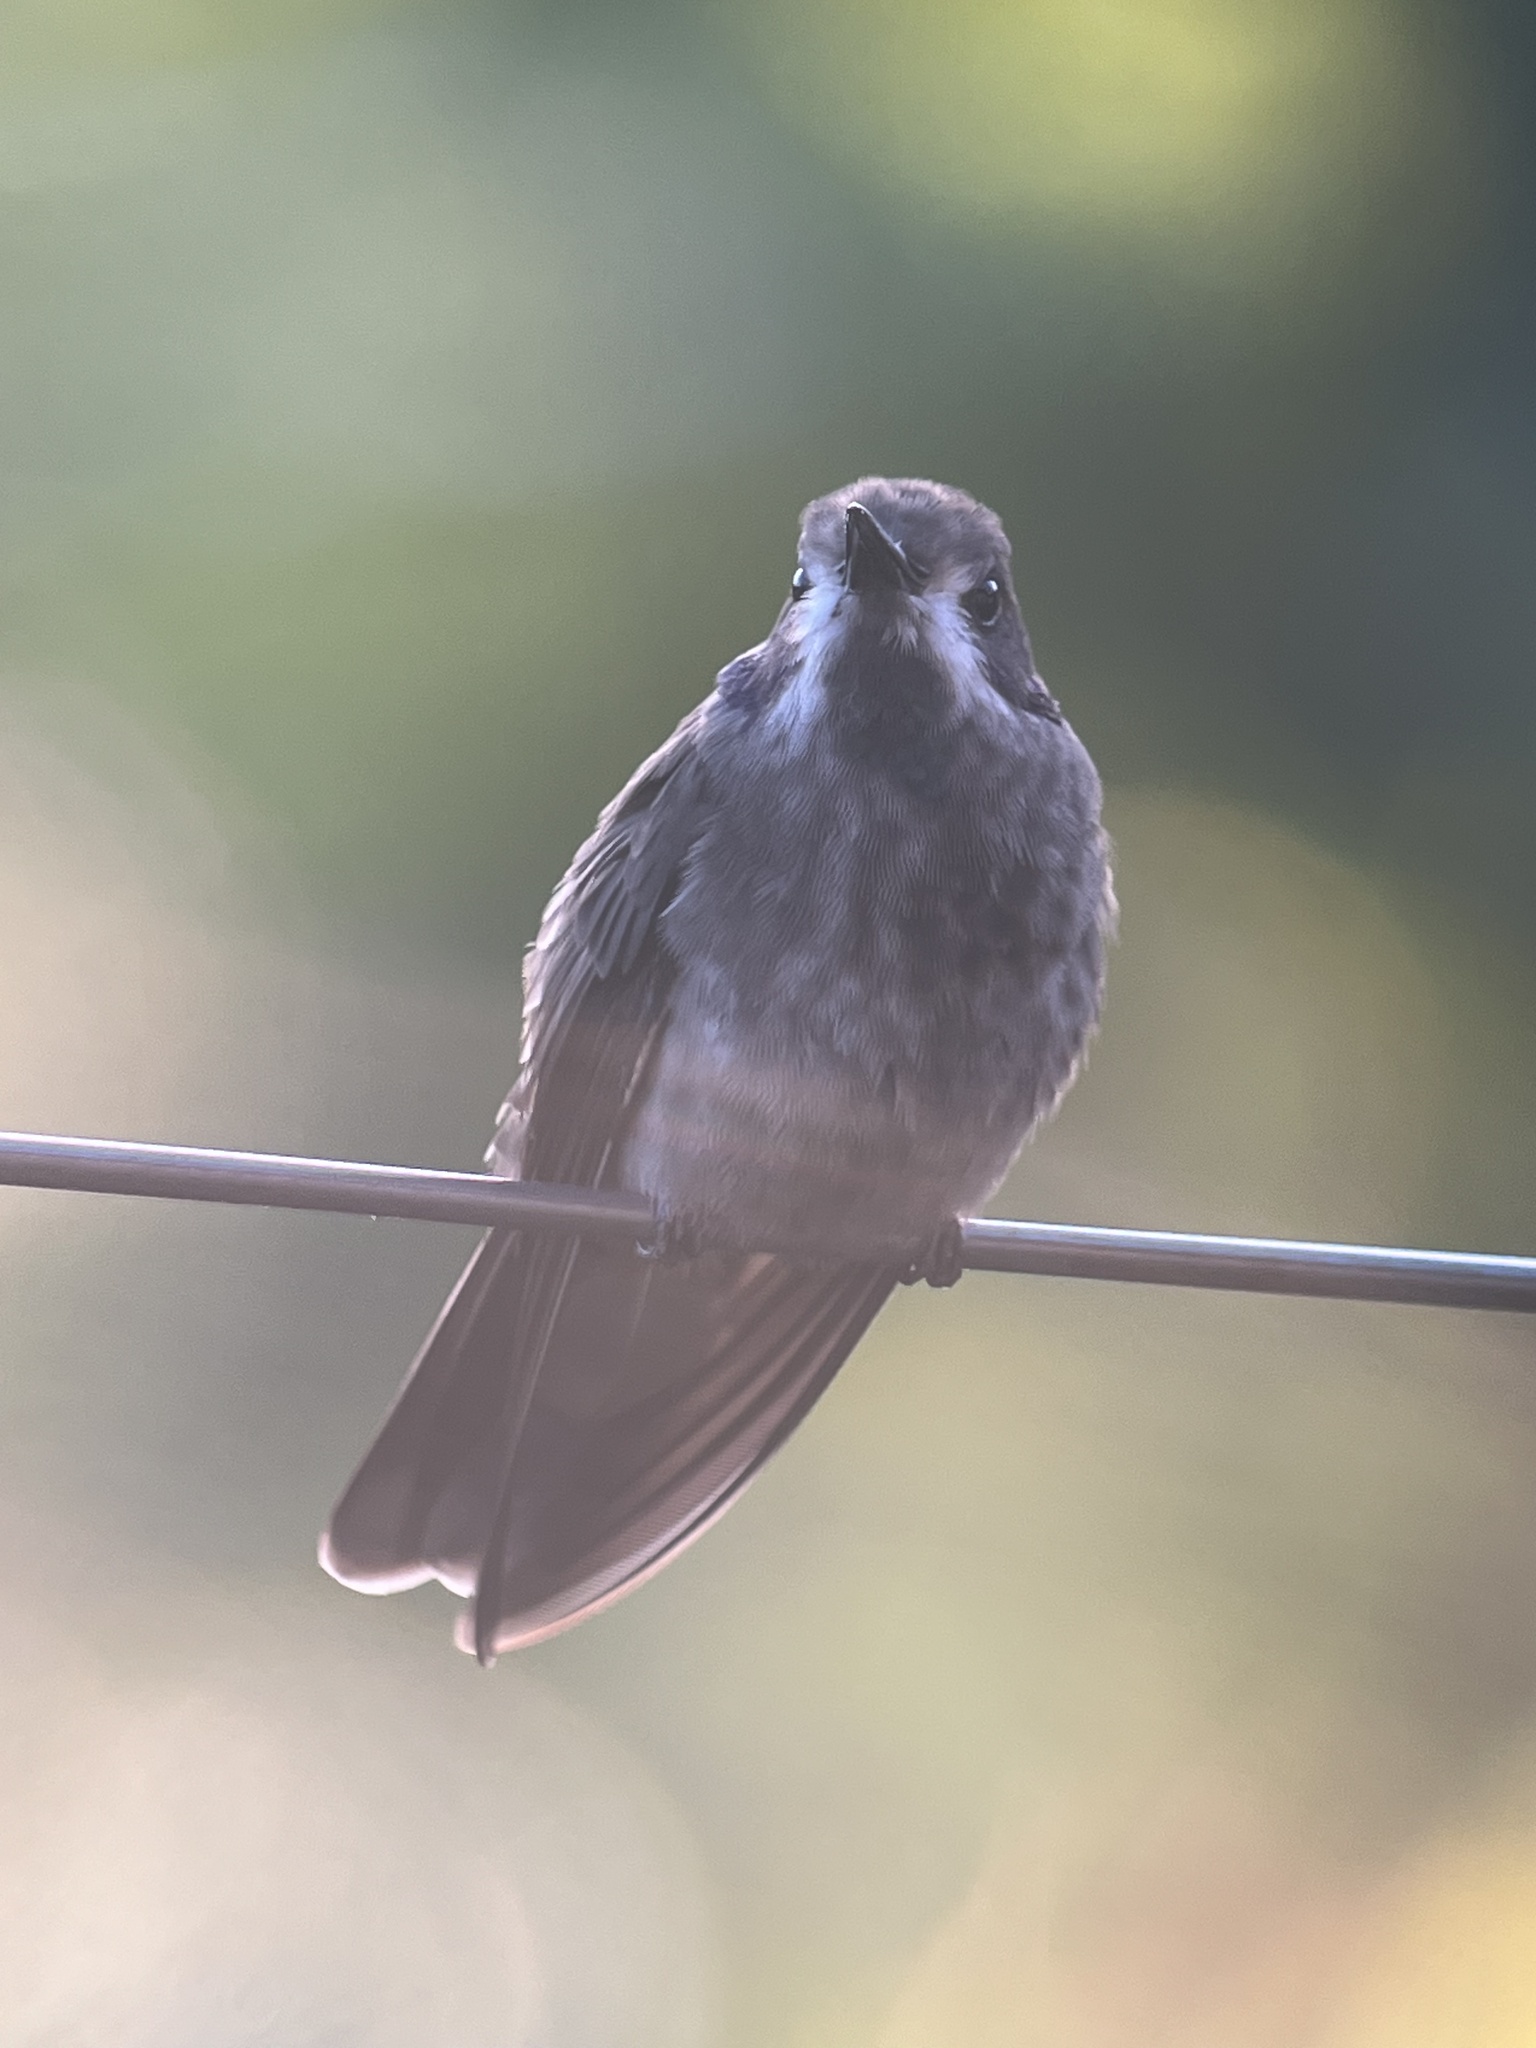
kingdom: Animalia
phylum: Chordata
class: Aves
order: Apodiformes
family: Trochilidae
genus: Colibri
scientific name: Colibri delphinae
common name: Brown violetear
